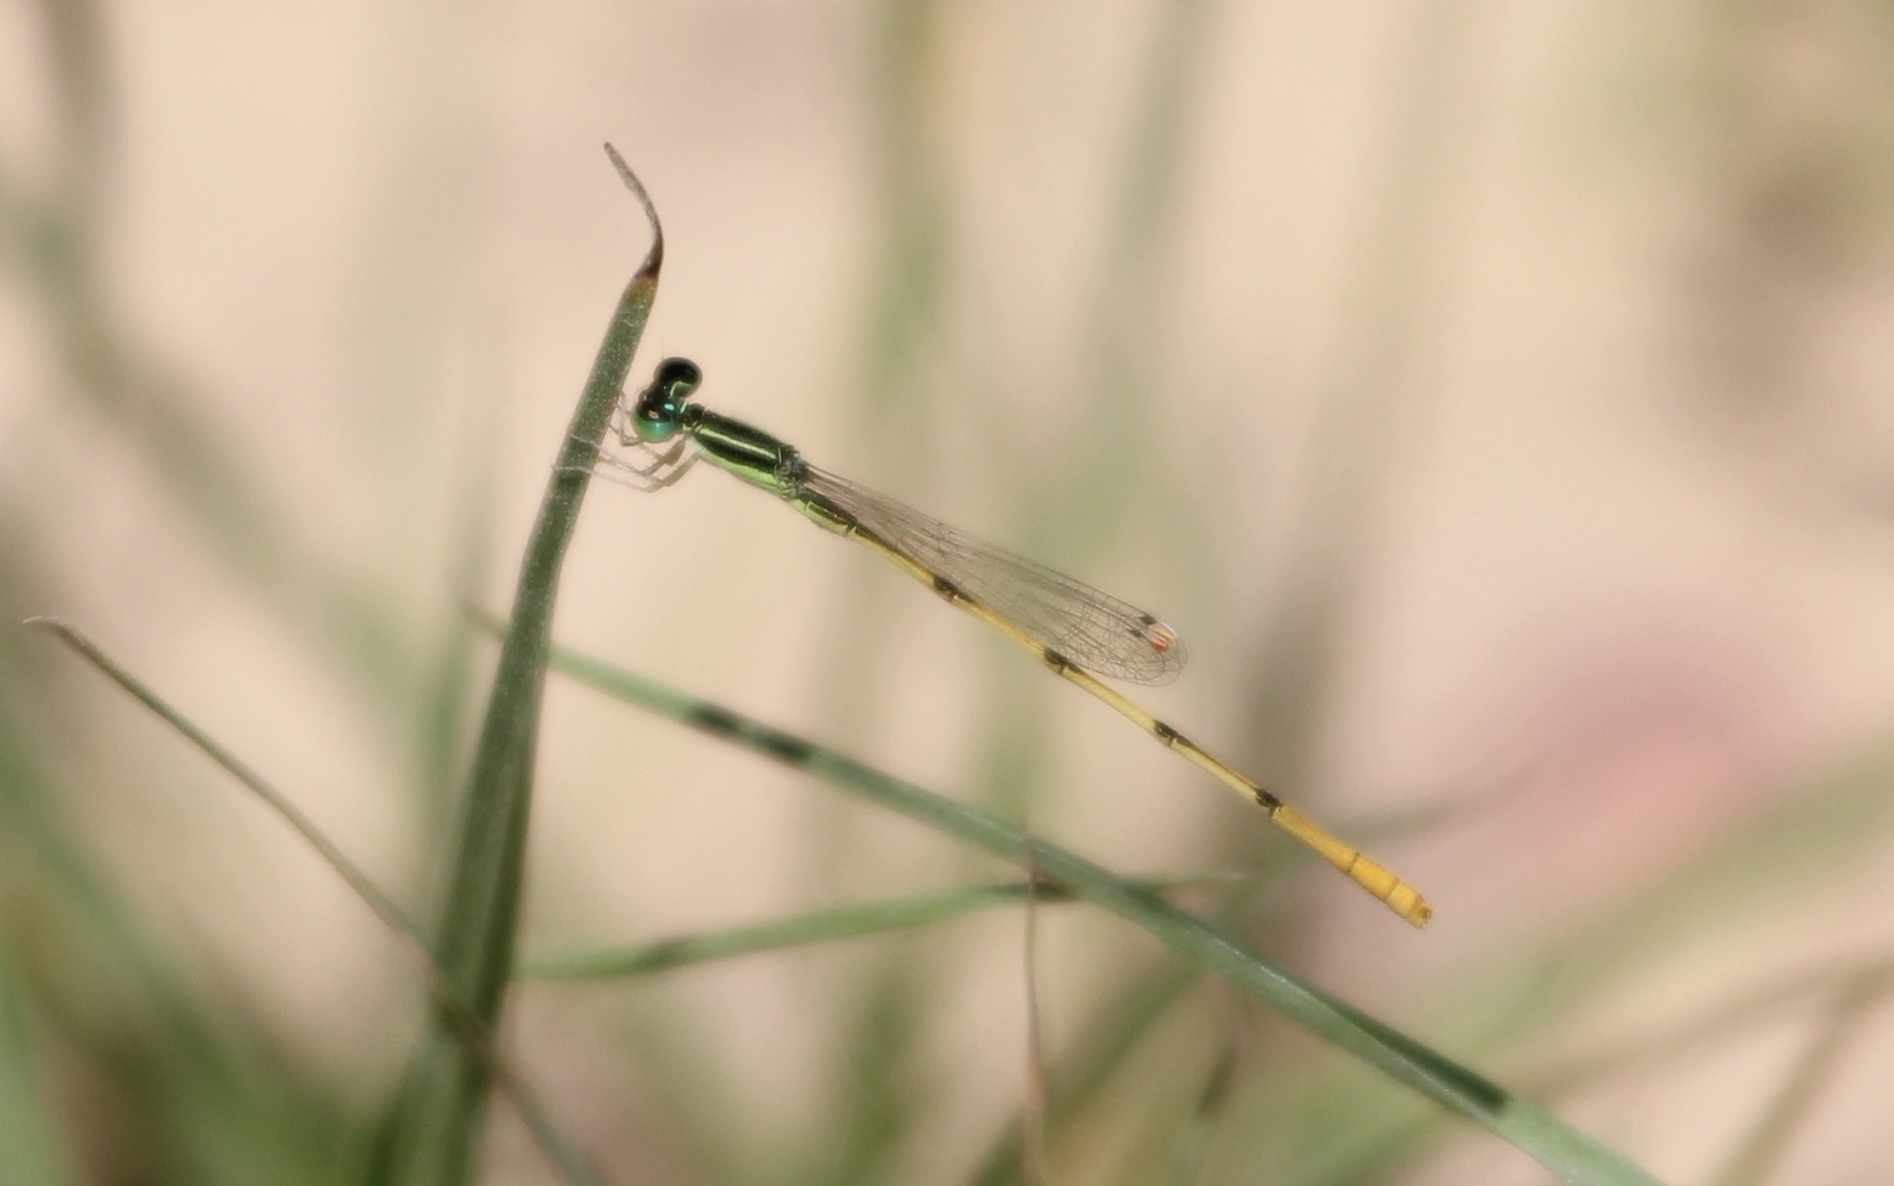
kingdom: Animalia
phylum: Arthropoda
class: Insecta
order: Odonata
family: Coenagrionidae
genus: Ischnura
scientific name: Ischnura hastata
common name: Citrine forktail
